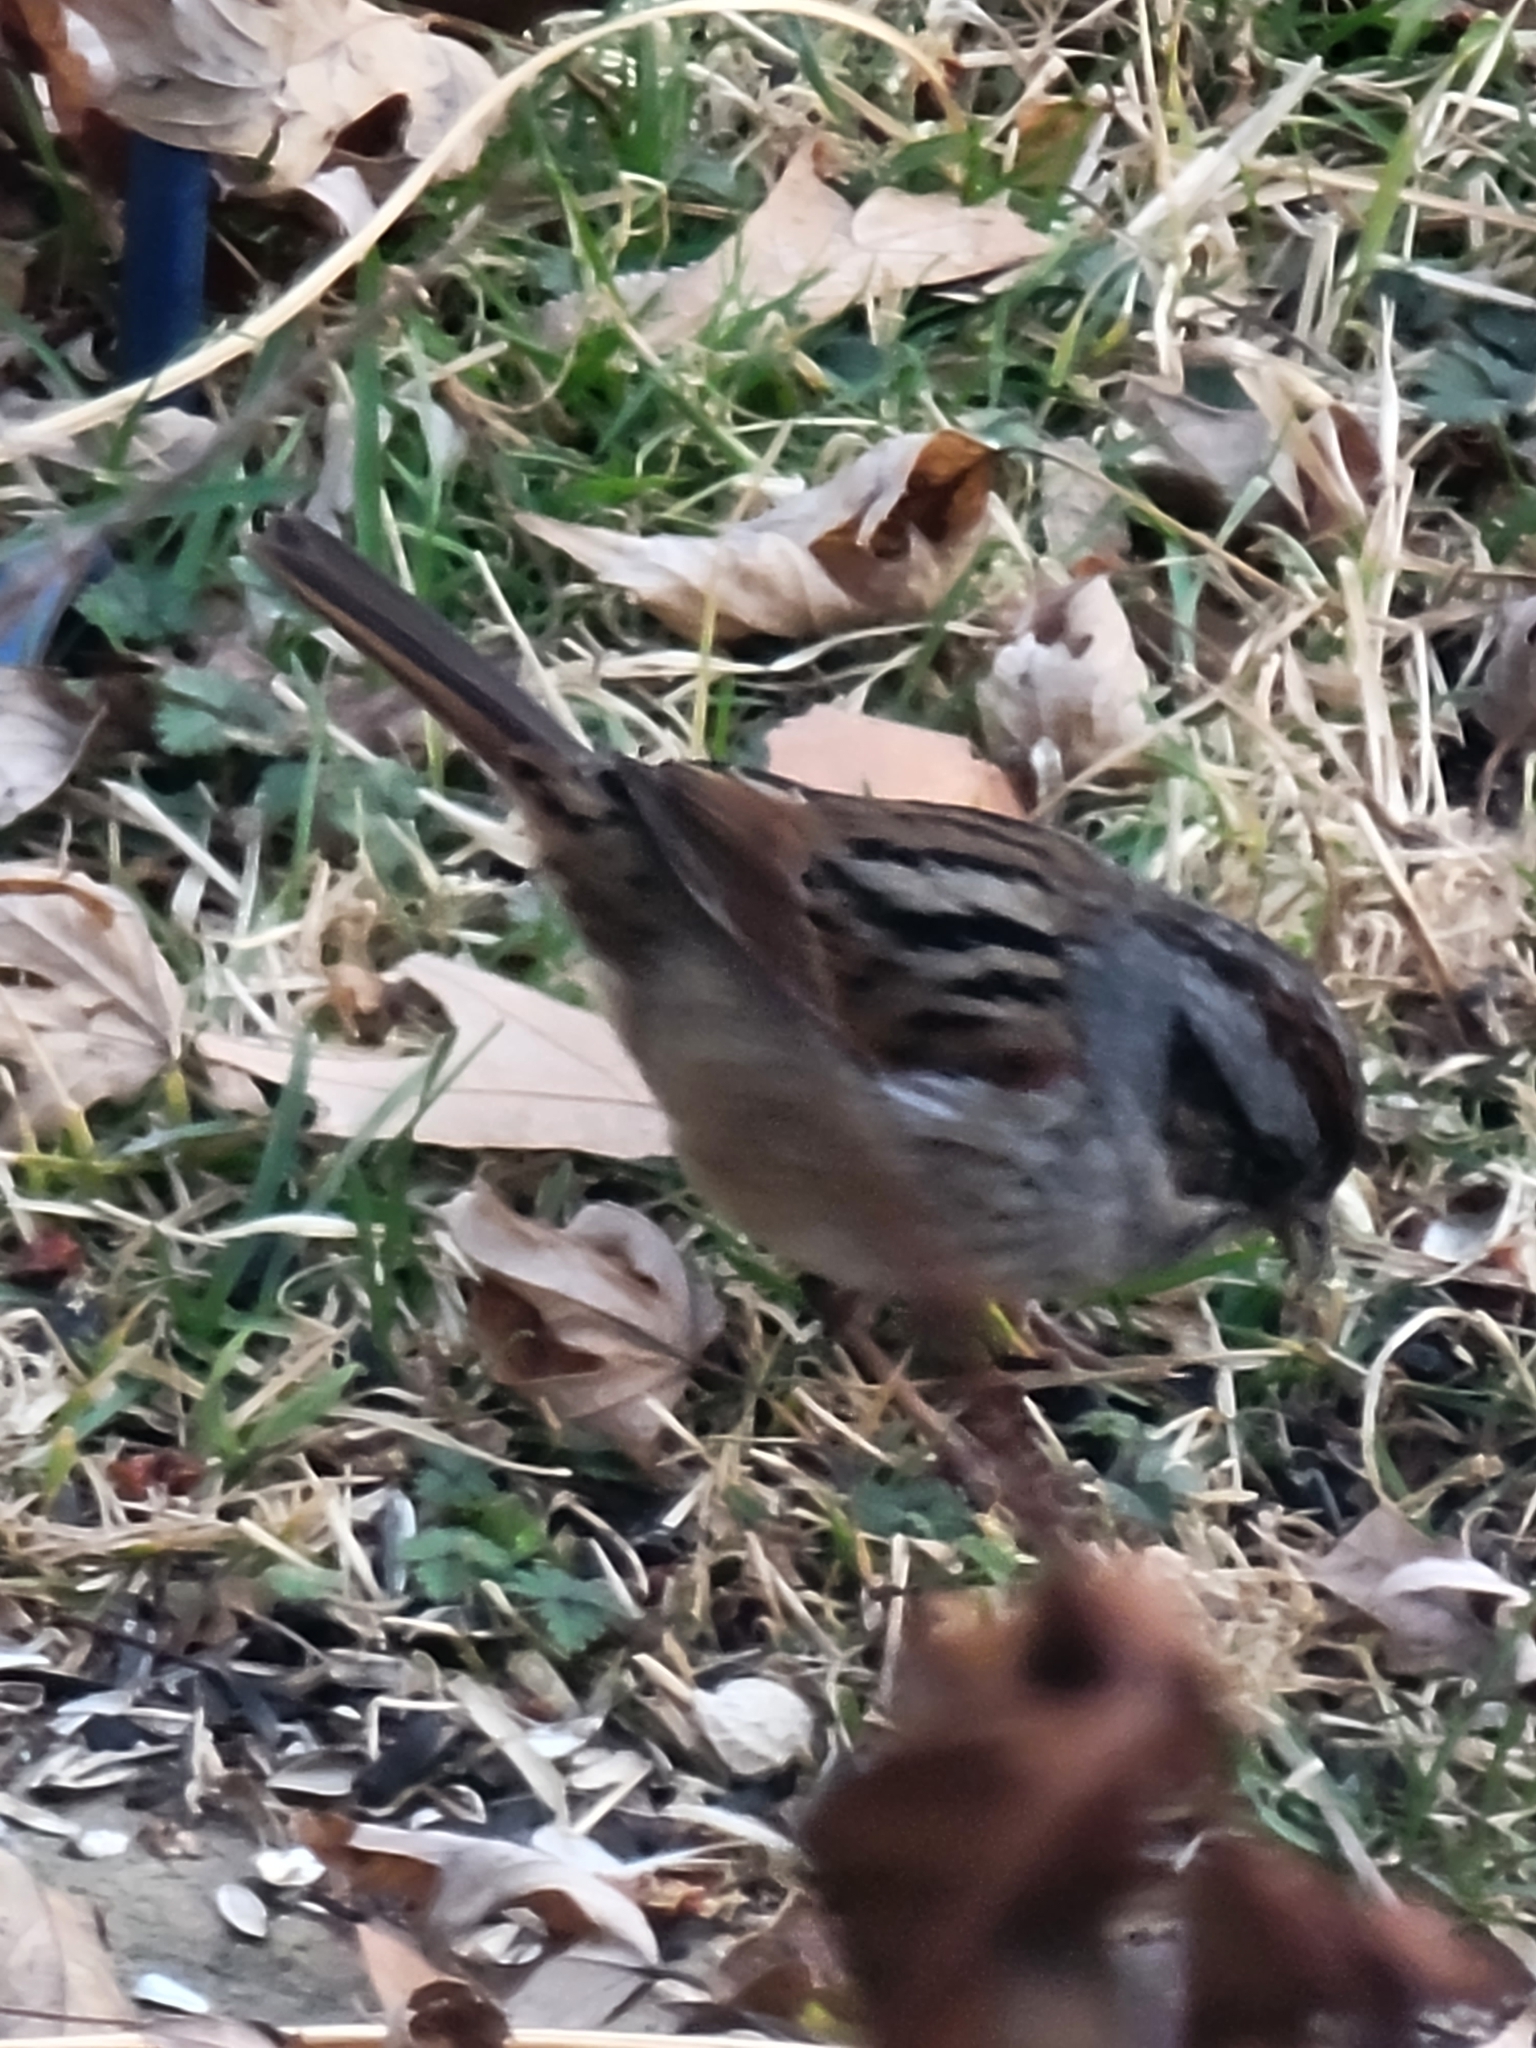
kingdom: Animalia
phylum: Chordata
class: Aves
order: Passeriformes
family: Passerellidae
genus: Melospiza
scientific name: Melospiza georgiana
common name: Swamp sparrow
